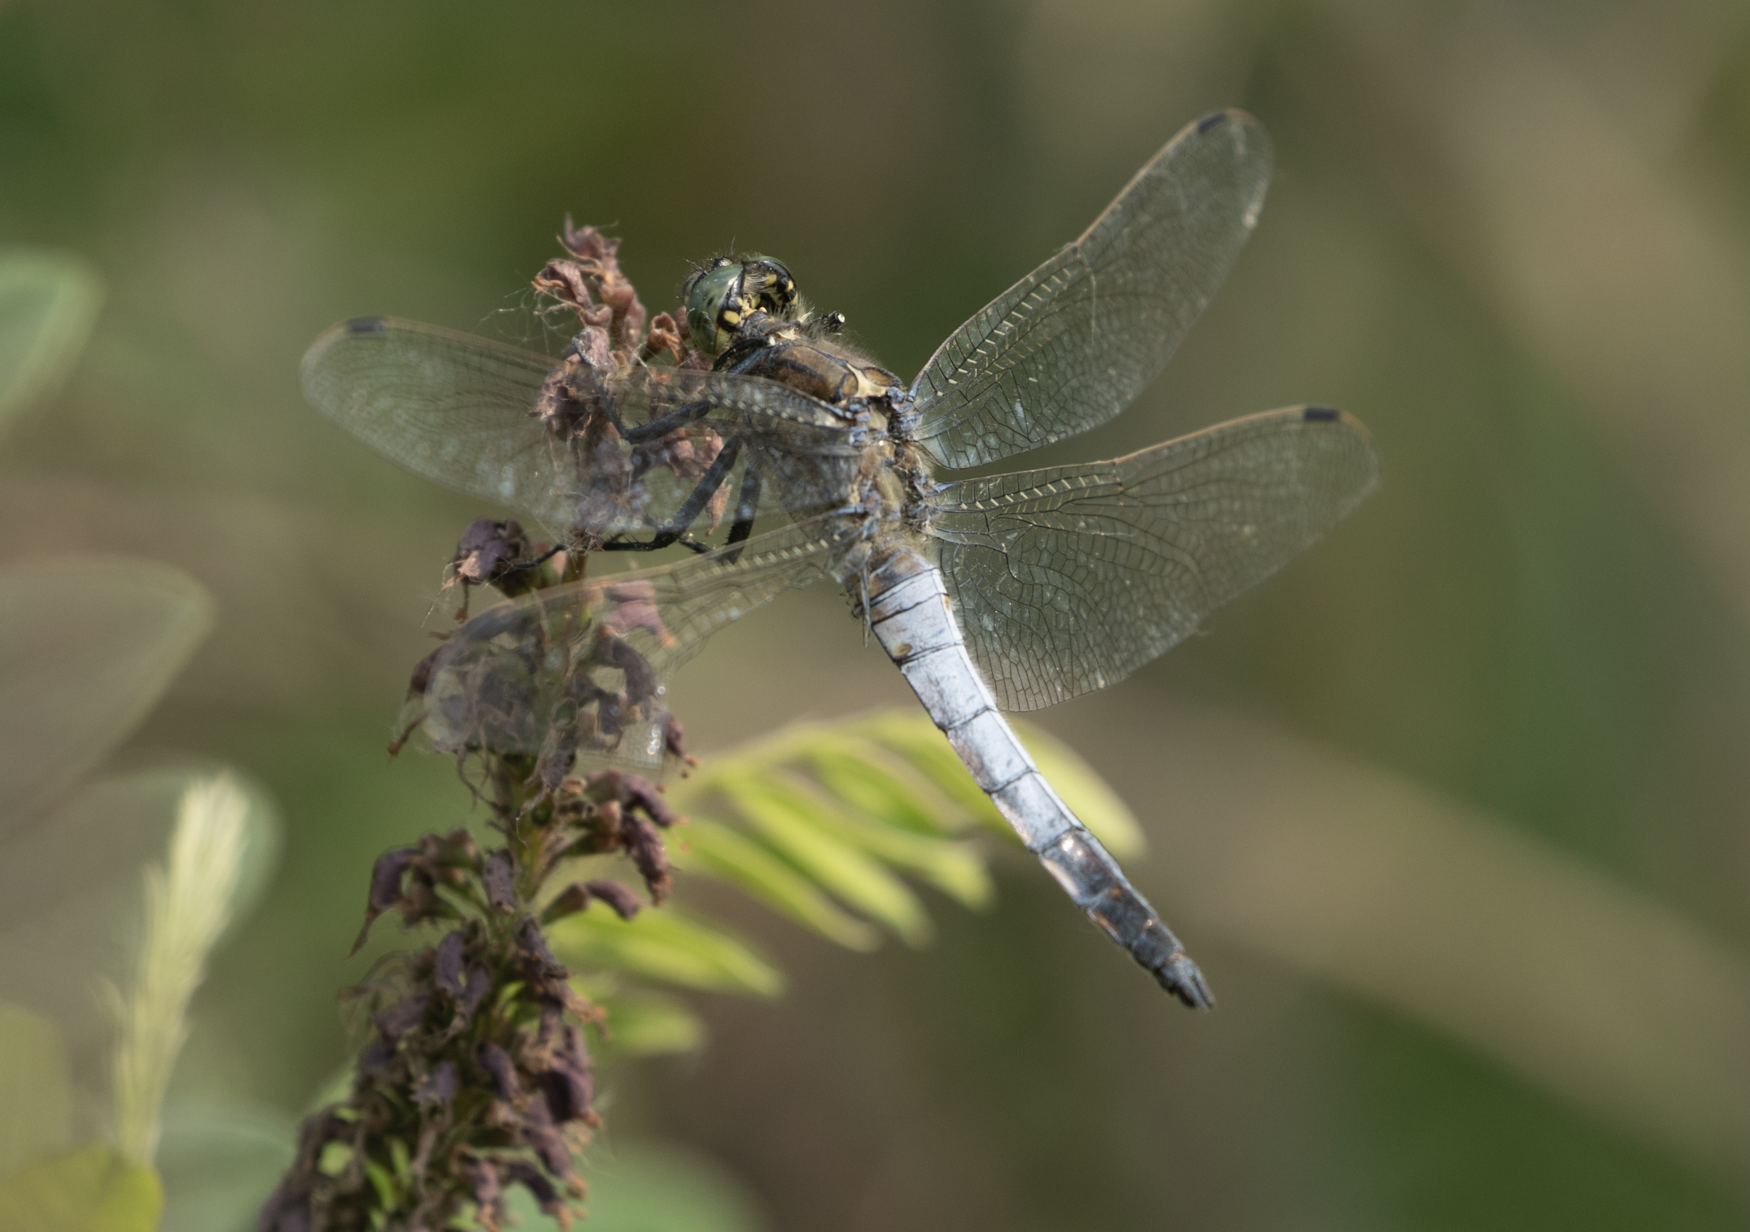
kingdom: Animalia
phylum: Arthropoda
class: Insecta
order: Odonata
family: Libellulidae
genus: Orthetrum
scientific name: Orthetrum cancellatum
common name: Black-tailed skimmer
